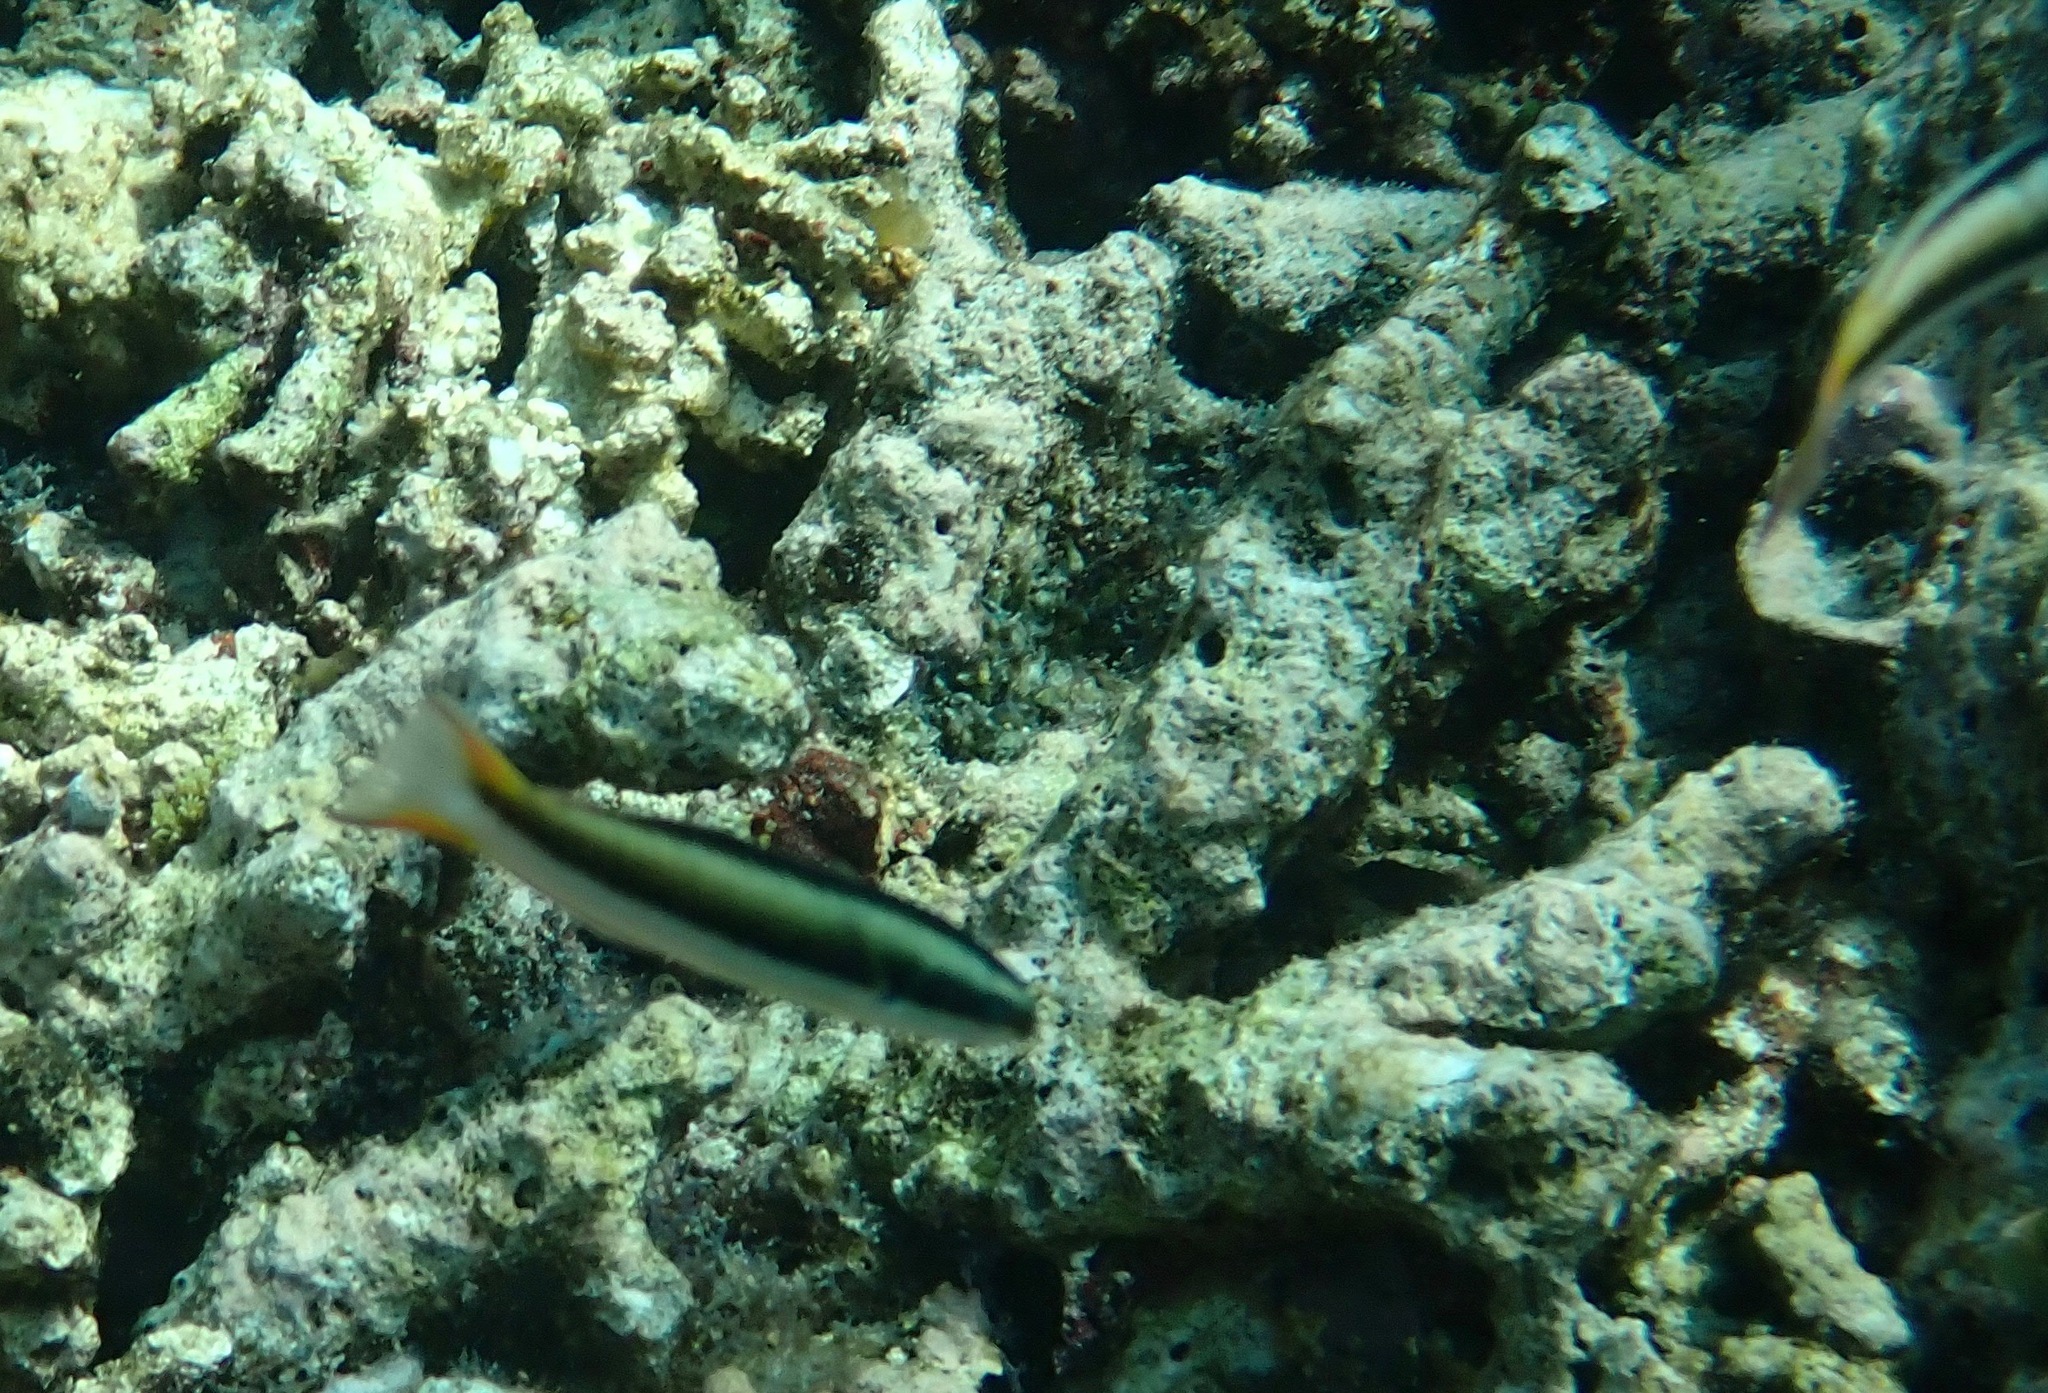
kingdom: Animalia
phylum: Chordata
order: Perciformes
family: Labridae
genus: Thalassoma
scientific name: Thalassoma amblycephalum
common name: Bluehead wrasse
